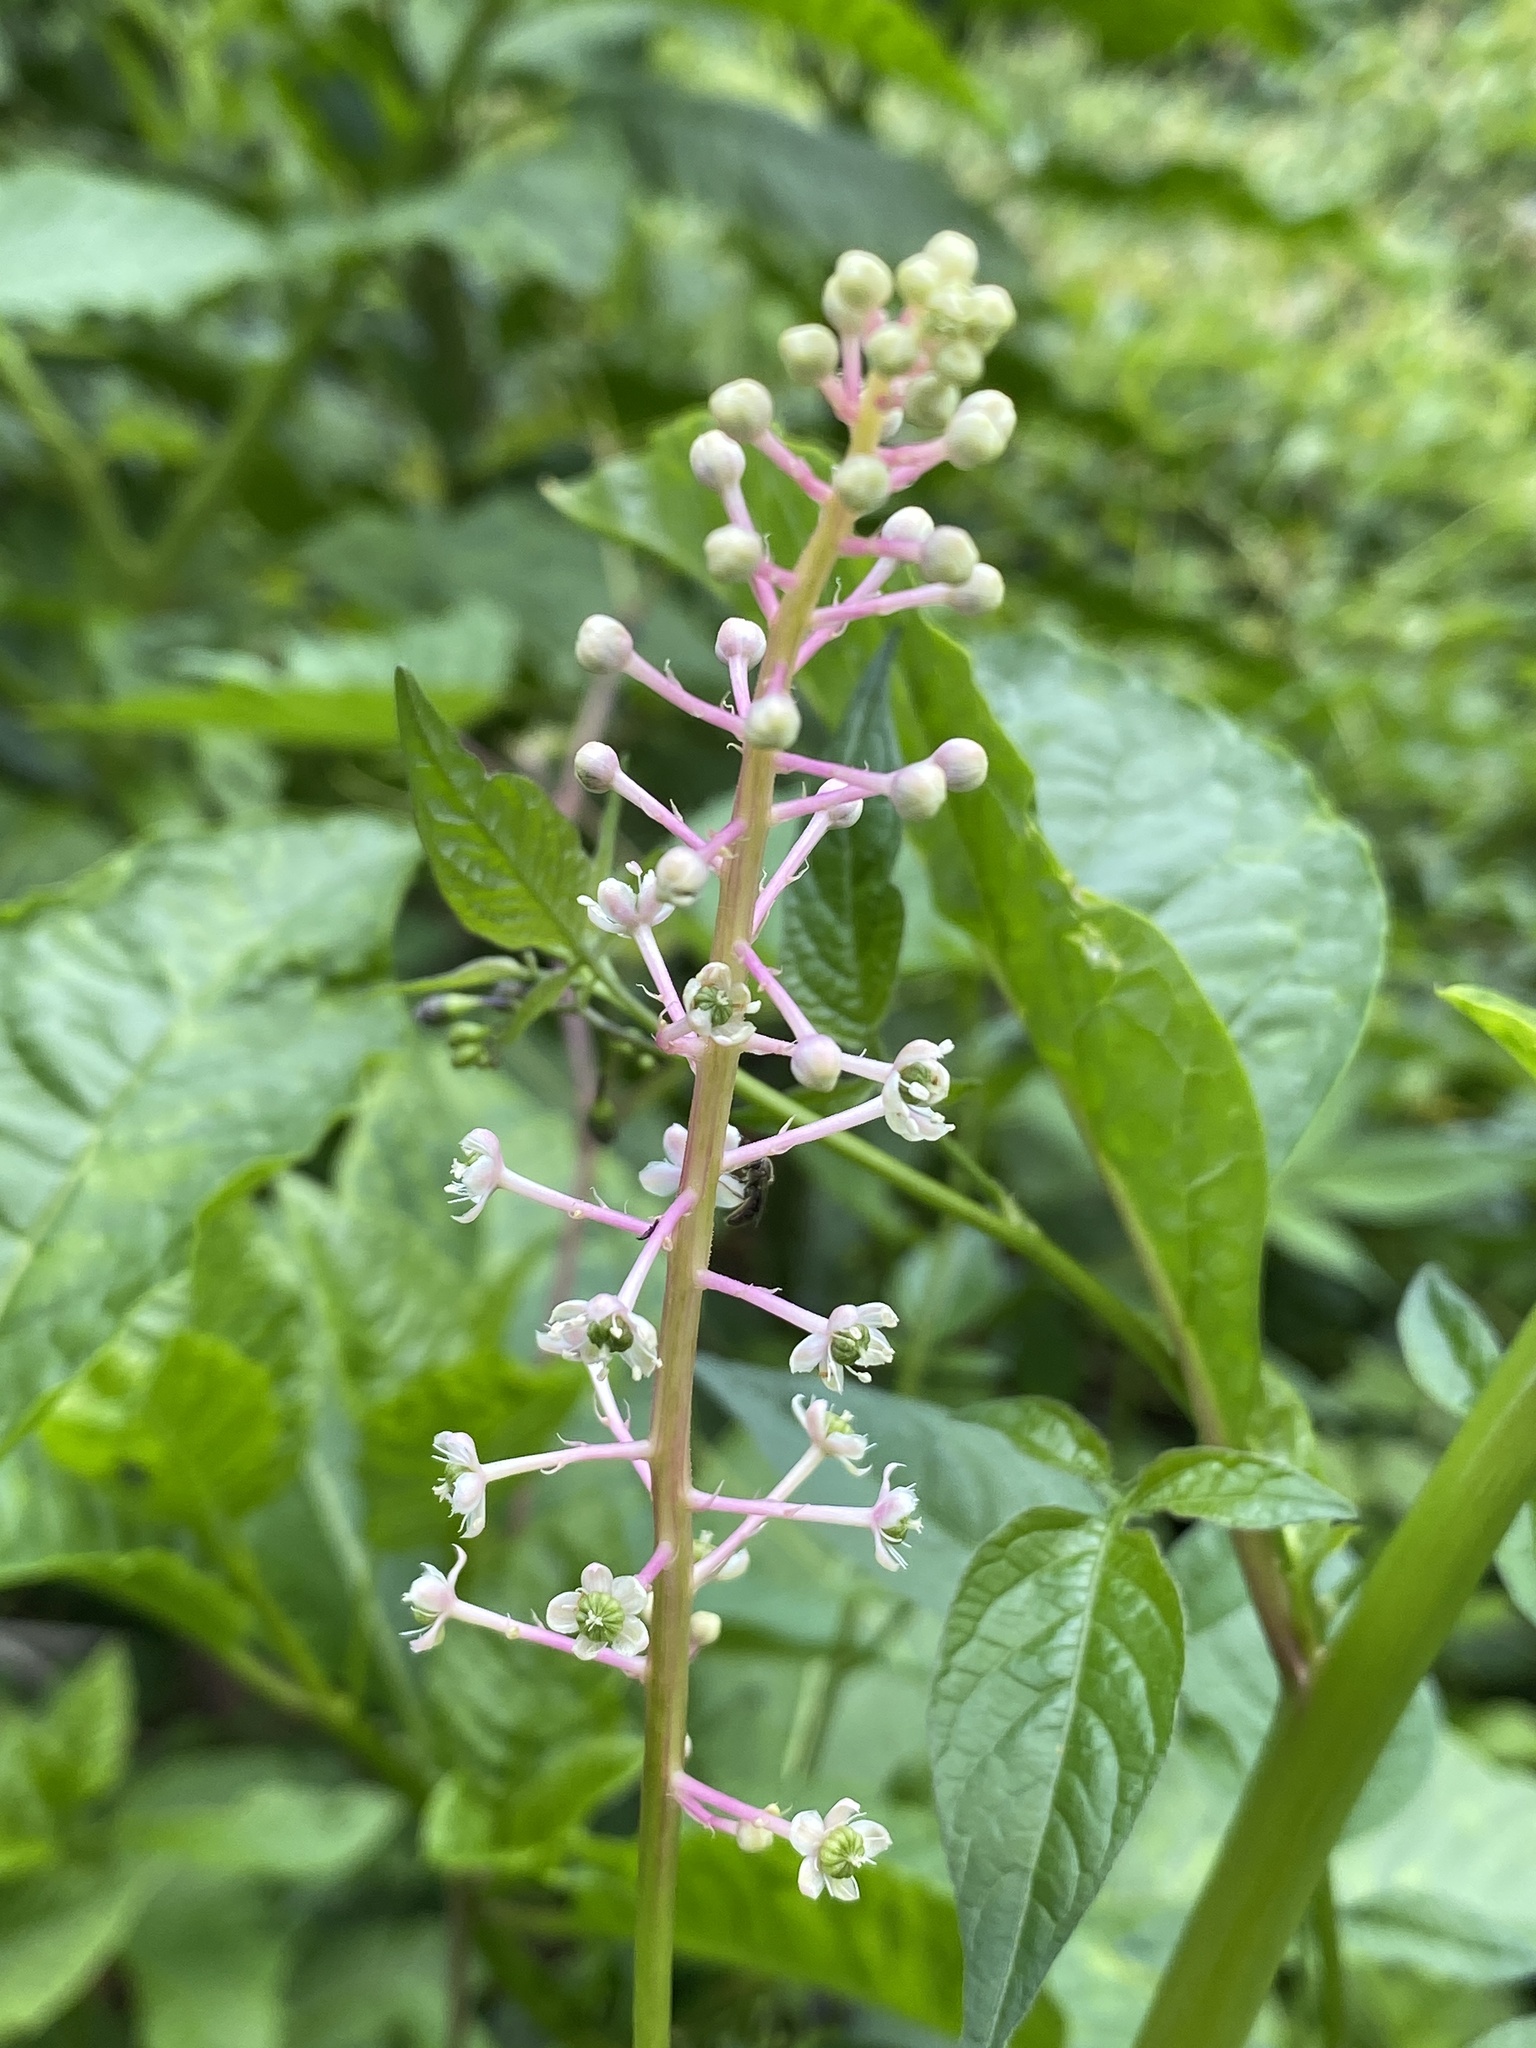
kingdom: Plantae
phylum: Tracheophyta
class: Magnoliopsida
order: Caryophyllales
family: Phytolaccaceae
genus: Phytolacca
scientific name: Phytolacca americana
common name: American pokeweed
